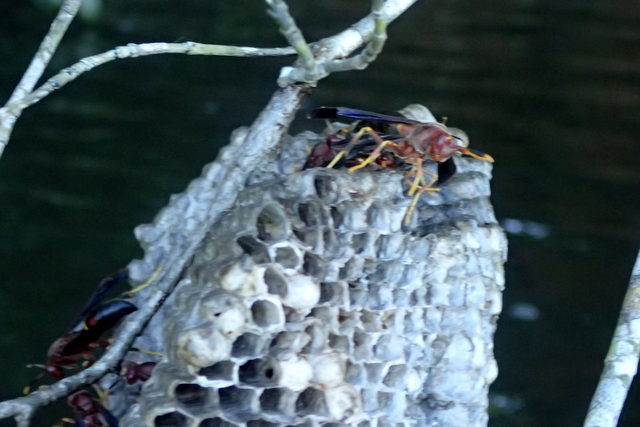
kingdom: Animalia
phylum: Arthropoda
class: Insecta
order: Hymenoptera
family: Eumenidae
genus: Polistes
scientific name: Polistes annularis
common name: Ringed paper wasp
